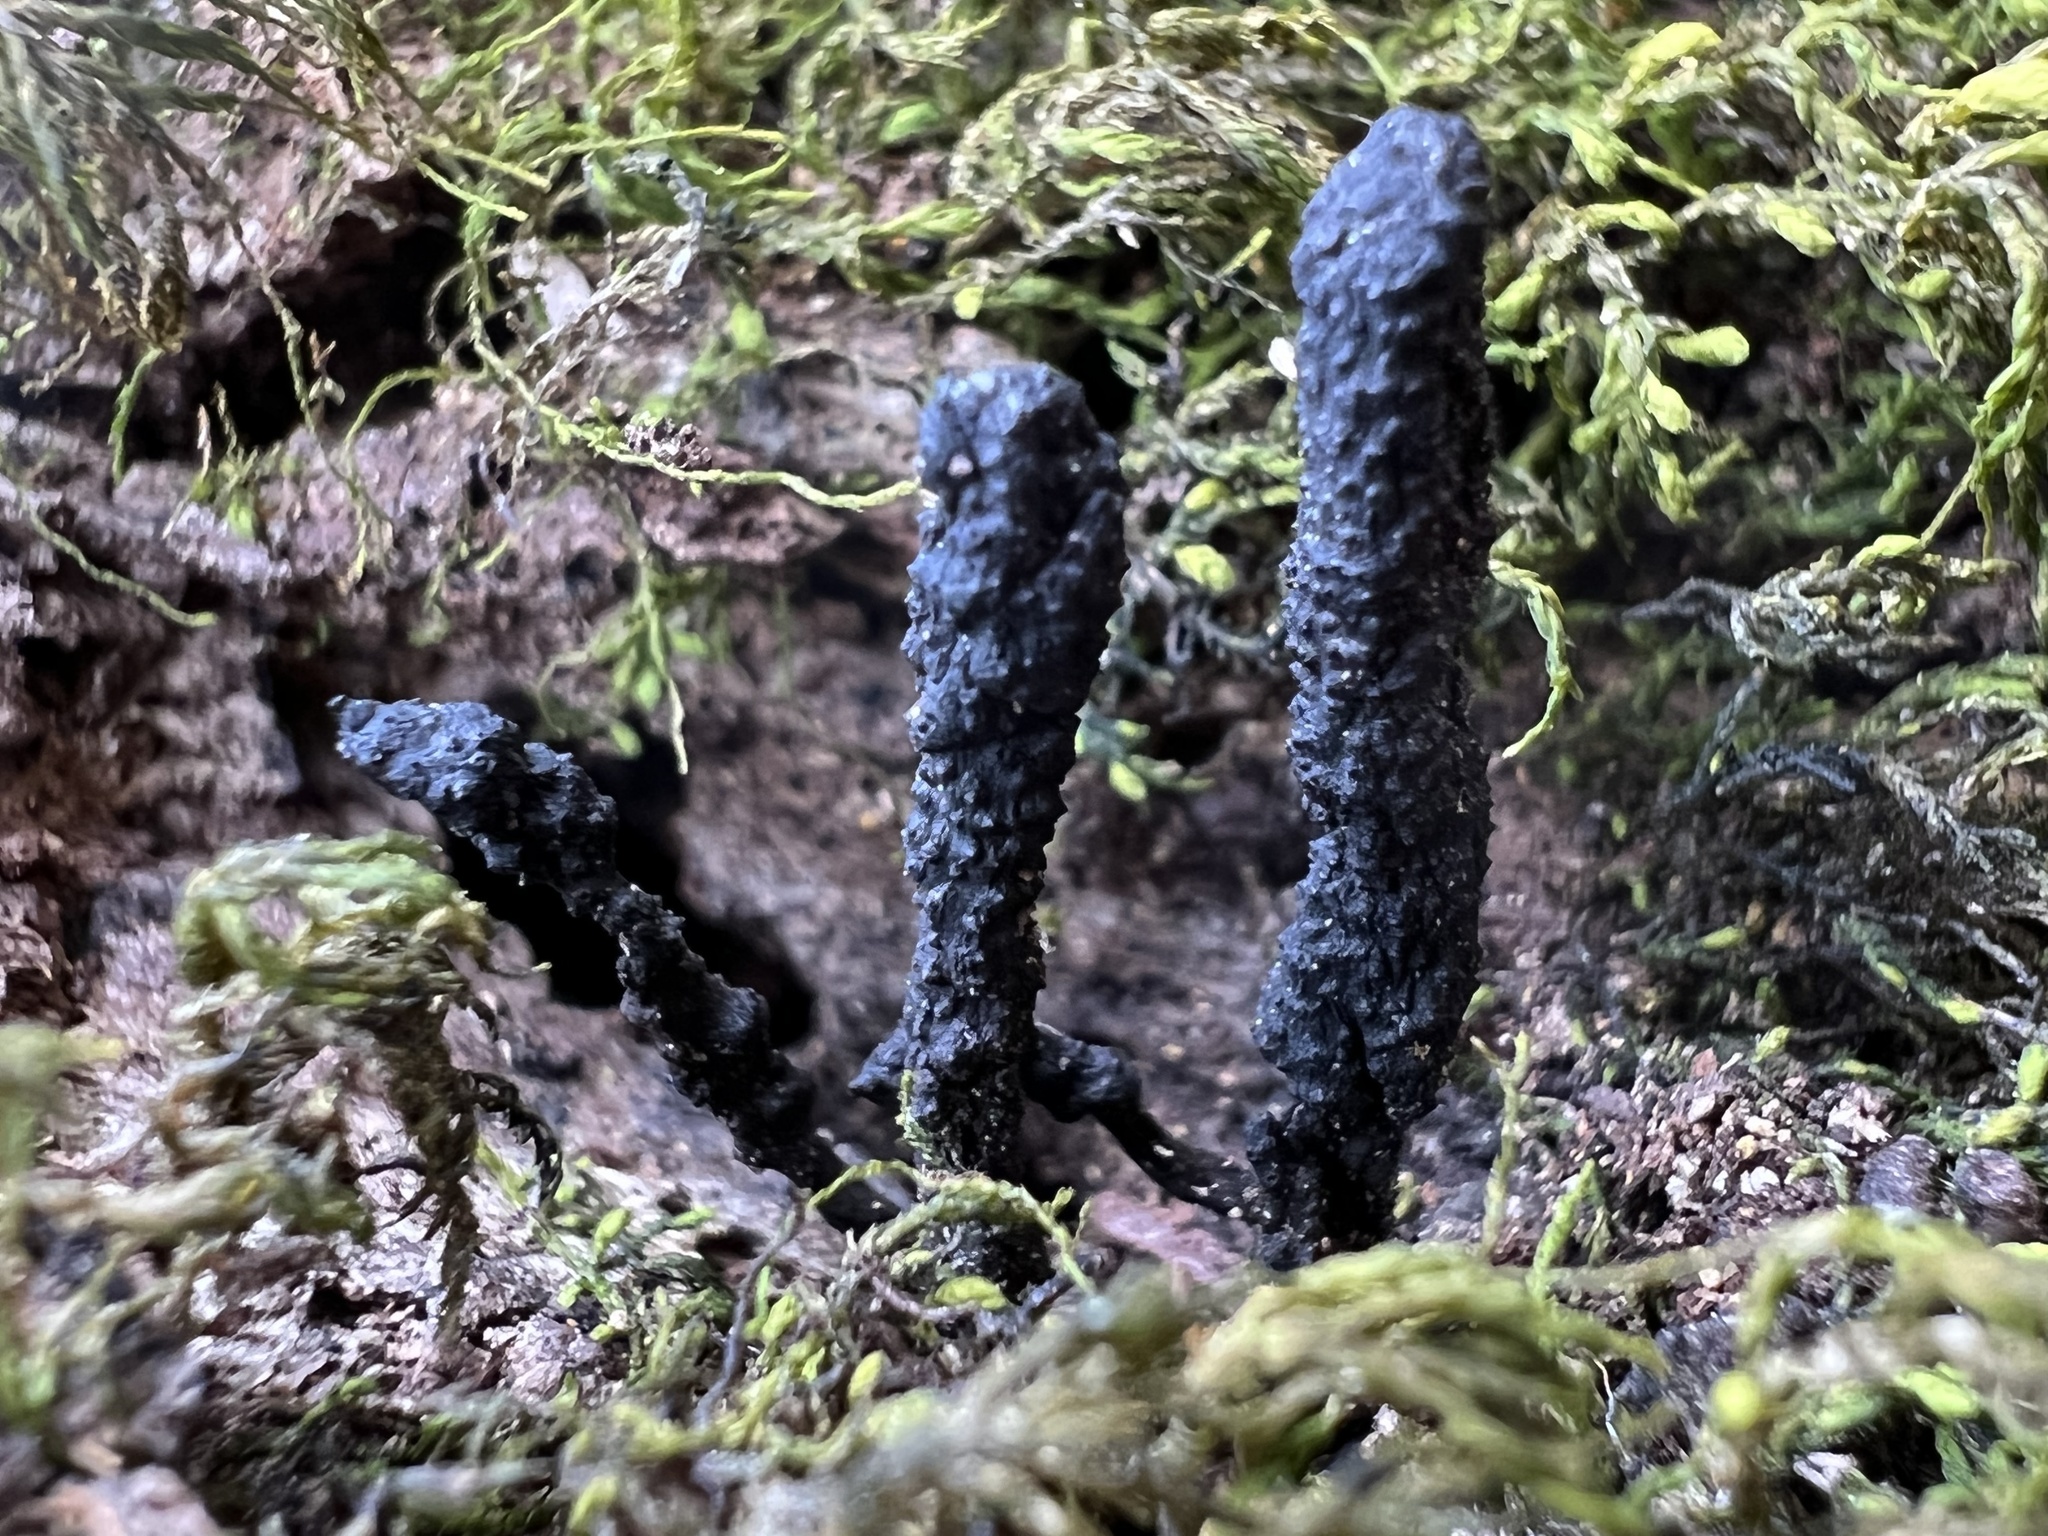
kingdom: Fungi
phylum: Ascomycota
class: Sordariomycetes
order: Xylariales
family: Xylariaceae
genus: Xylaria
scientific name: Xylaria longipes
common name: Dead moll's fingers
